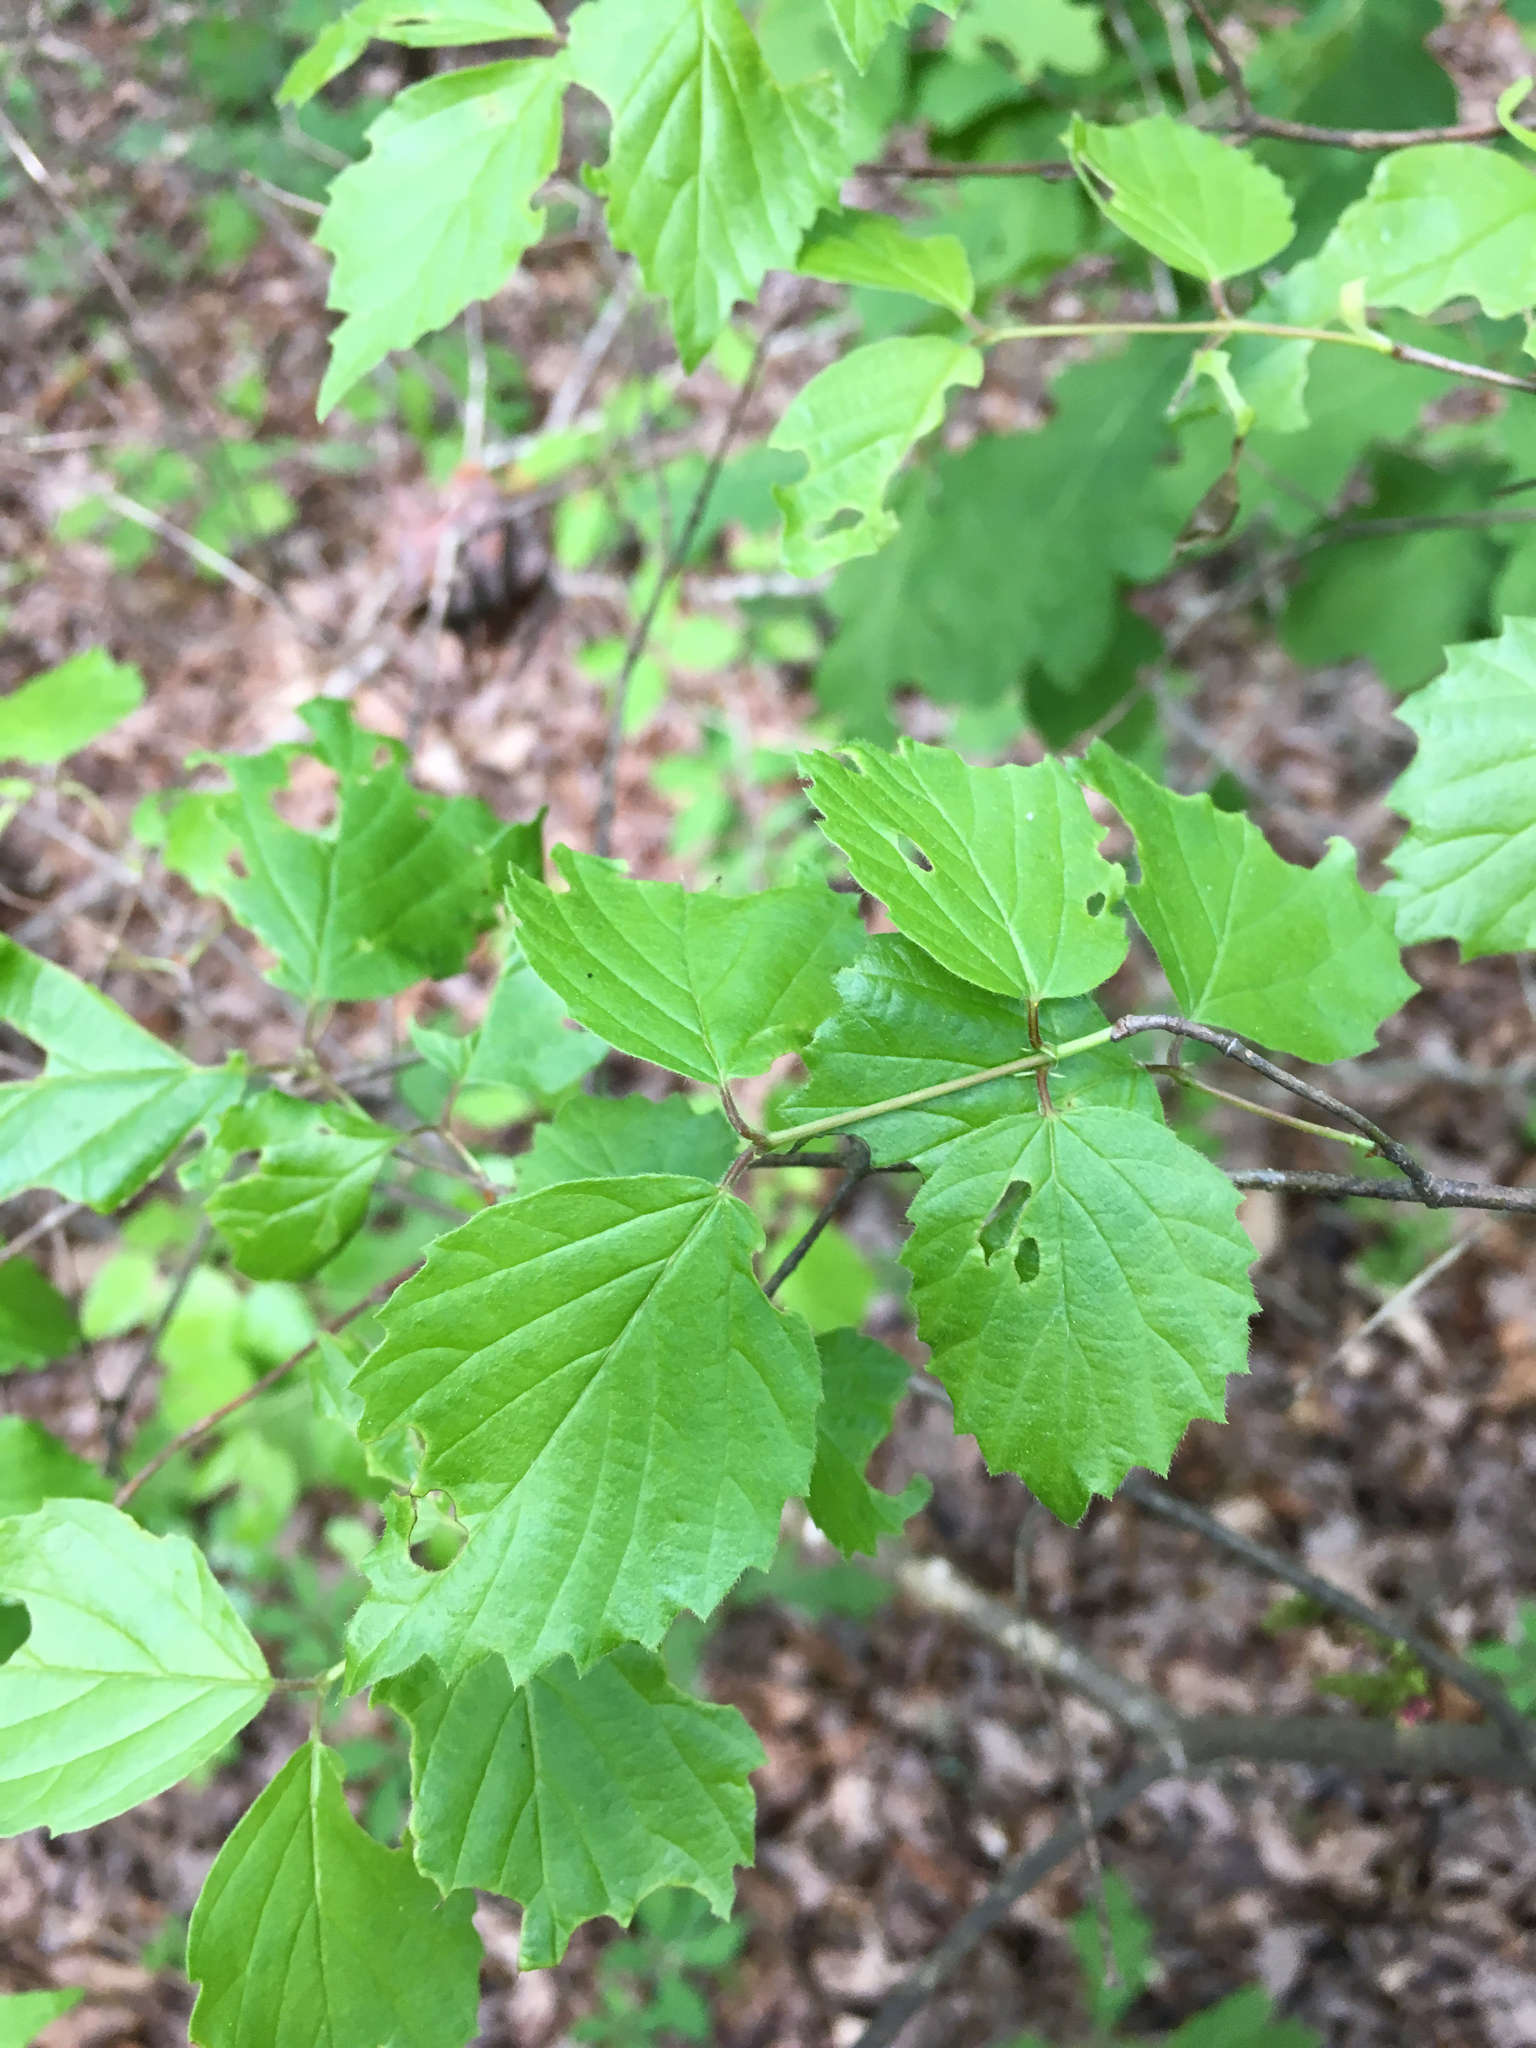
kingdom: Plantae
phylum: Tracheophyta
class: Magnoliopsida
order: Dipsacales
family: Viburnaceae
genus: Viburnum
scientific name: Viburnum rafinesqueanum
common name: Downy arrow-wood
